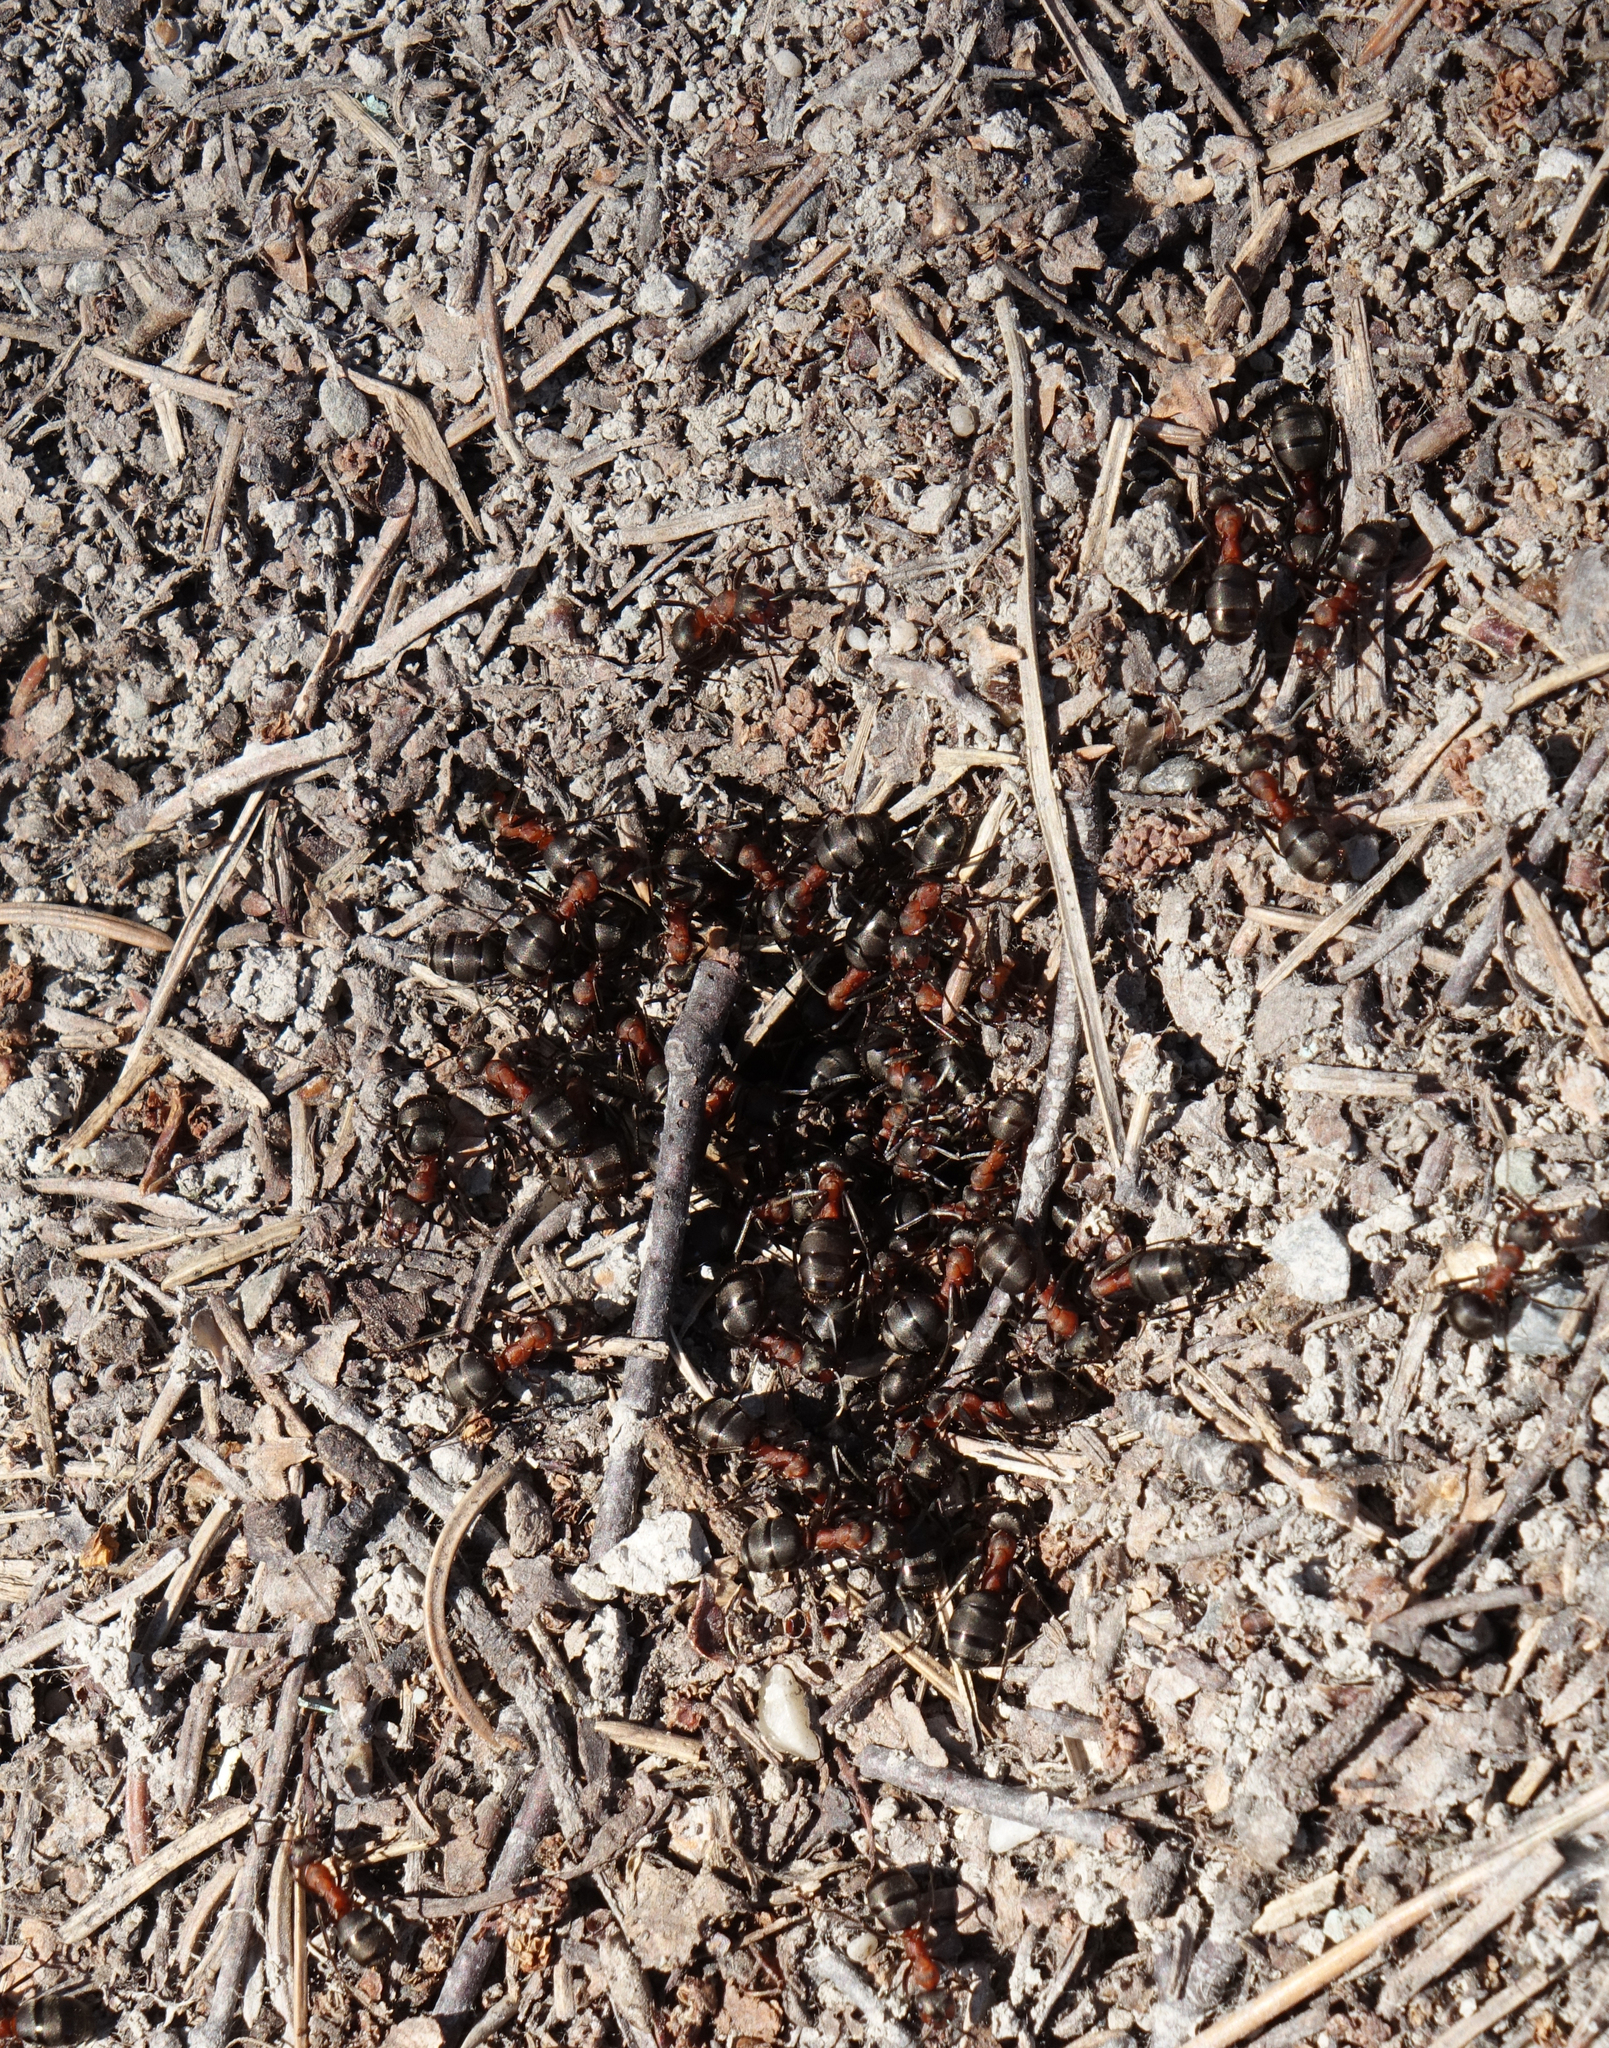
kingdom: Animalia
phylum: Arthropoda
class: Insecta
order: Hymenoptera
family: Formicidae
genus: Formica
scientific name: Formica
